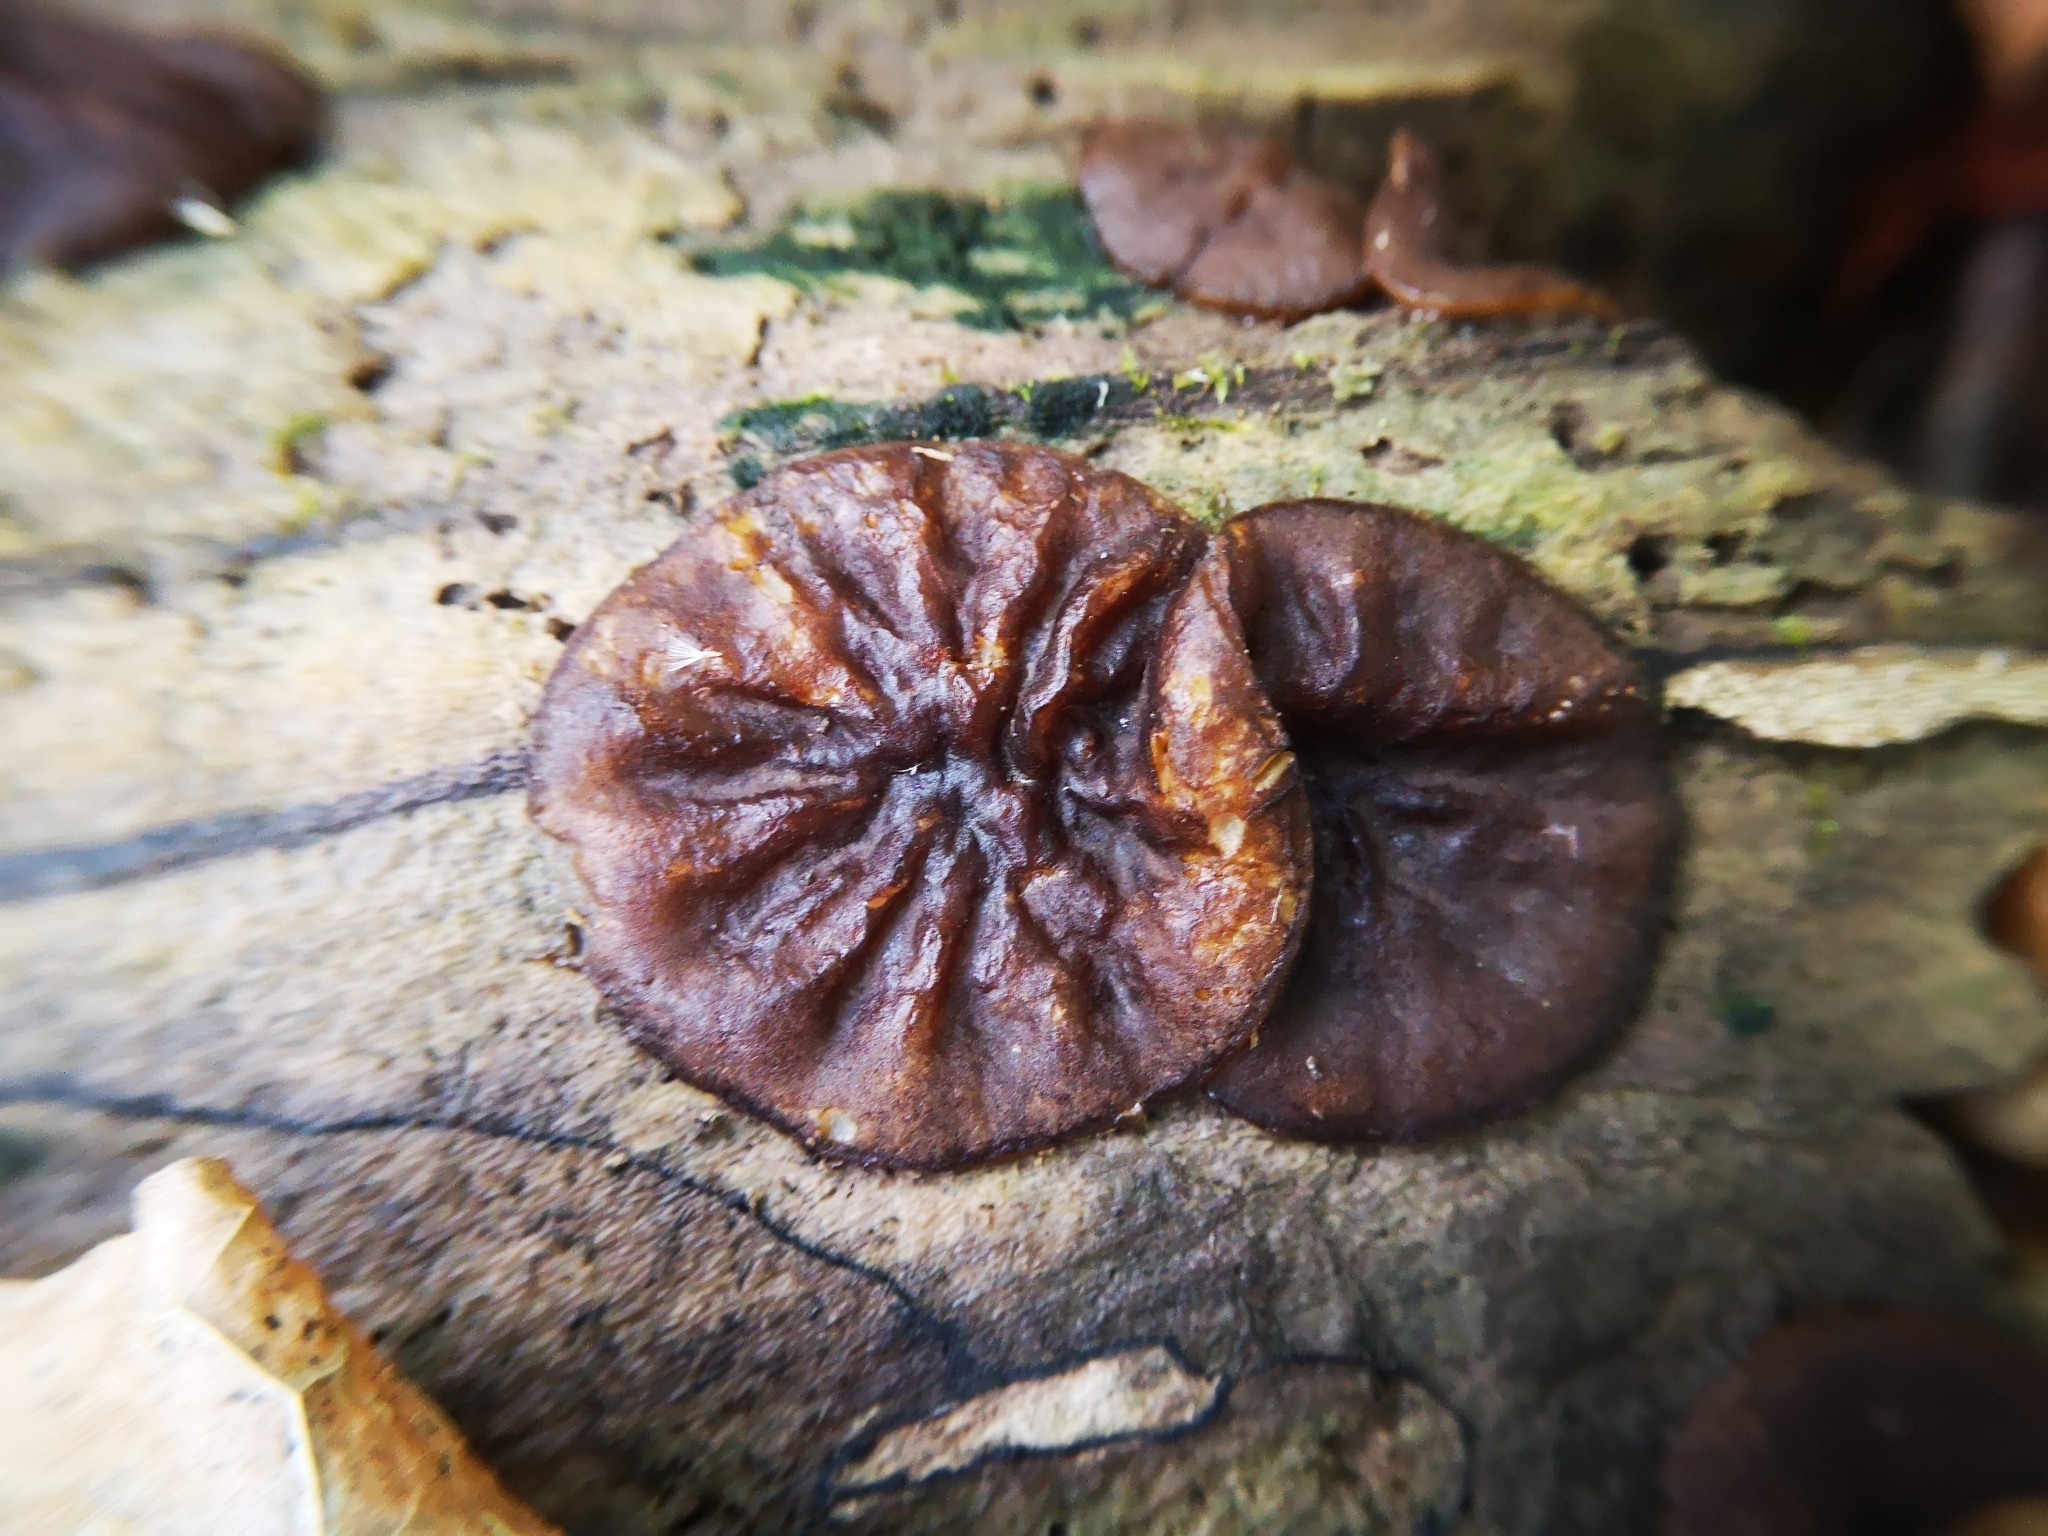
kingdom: Fungi
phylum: Ascomycota
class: Pezizomycetes
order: Pezizales
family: Pezizaceae
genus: Pachyella
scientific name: Pachyella clypeata
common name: Copper penny fungus
